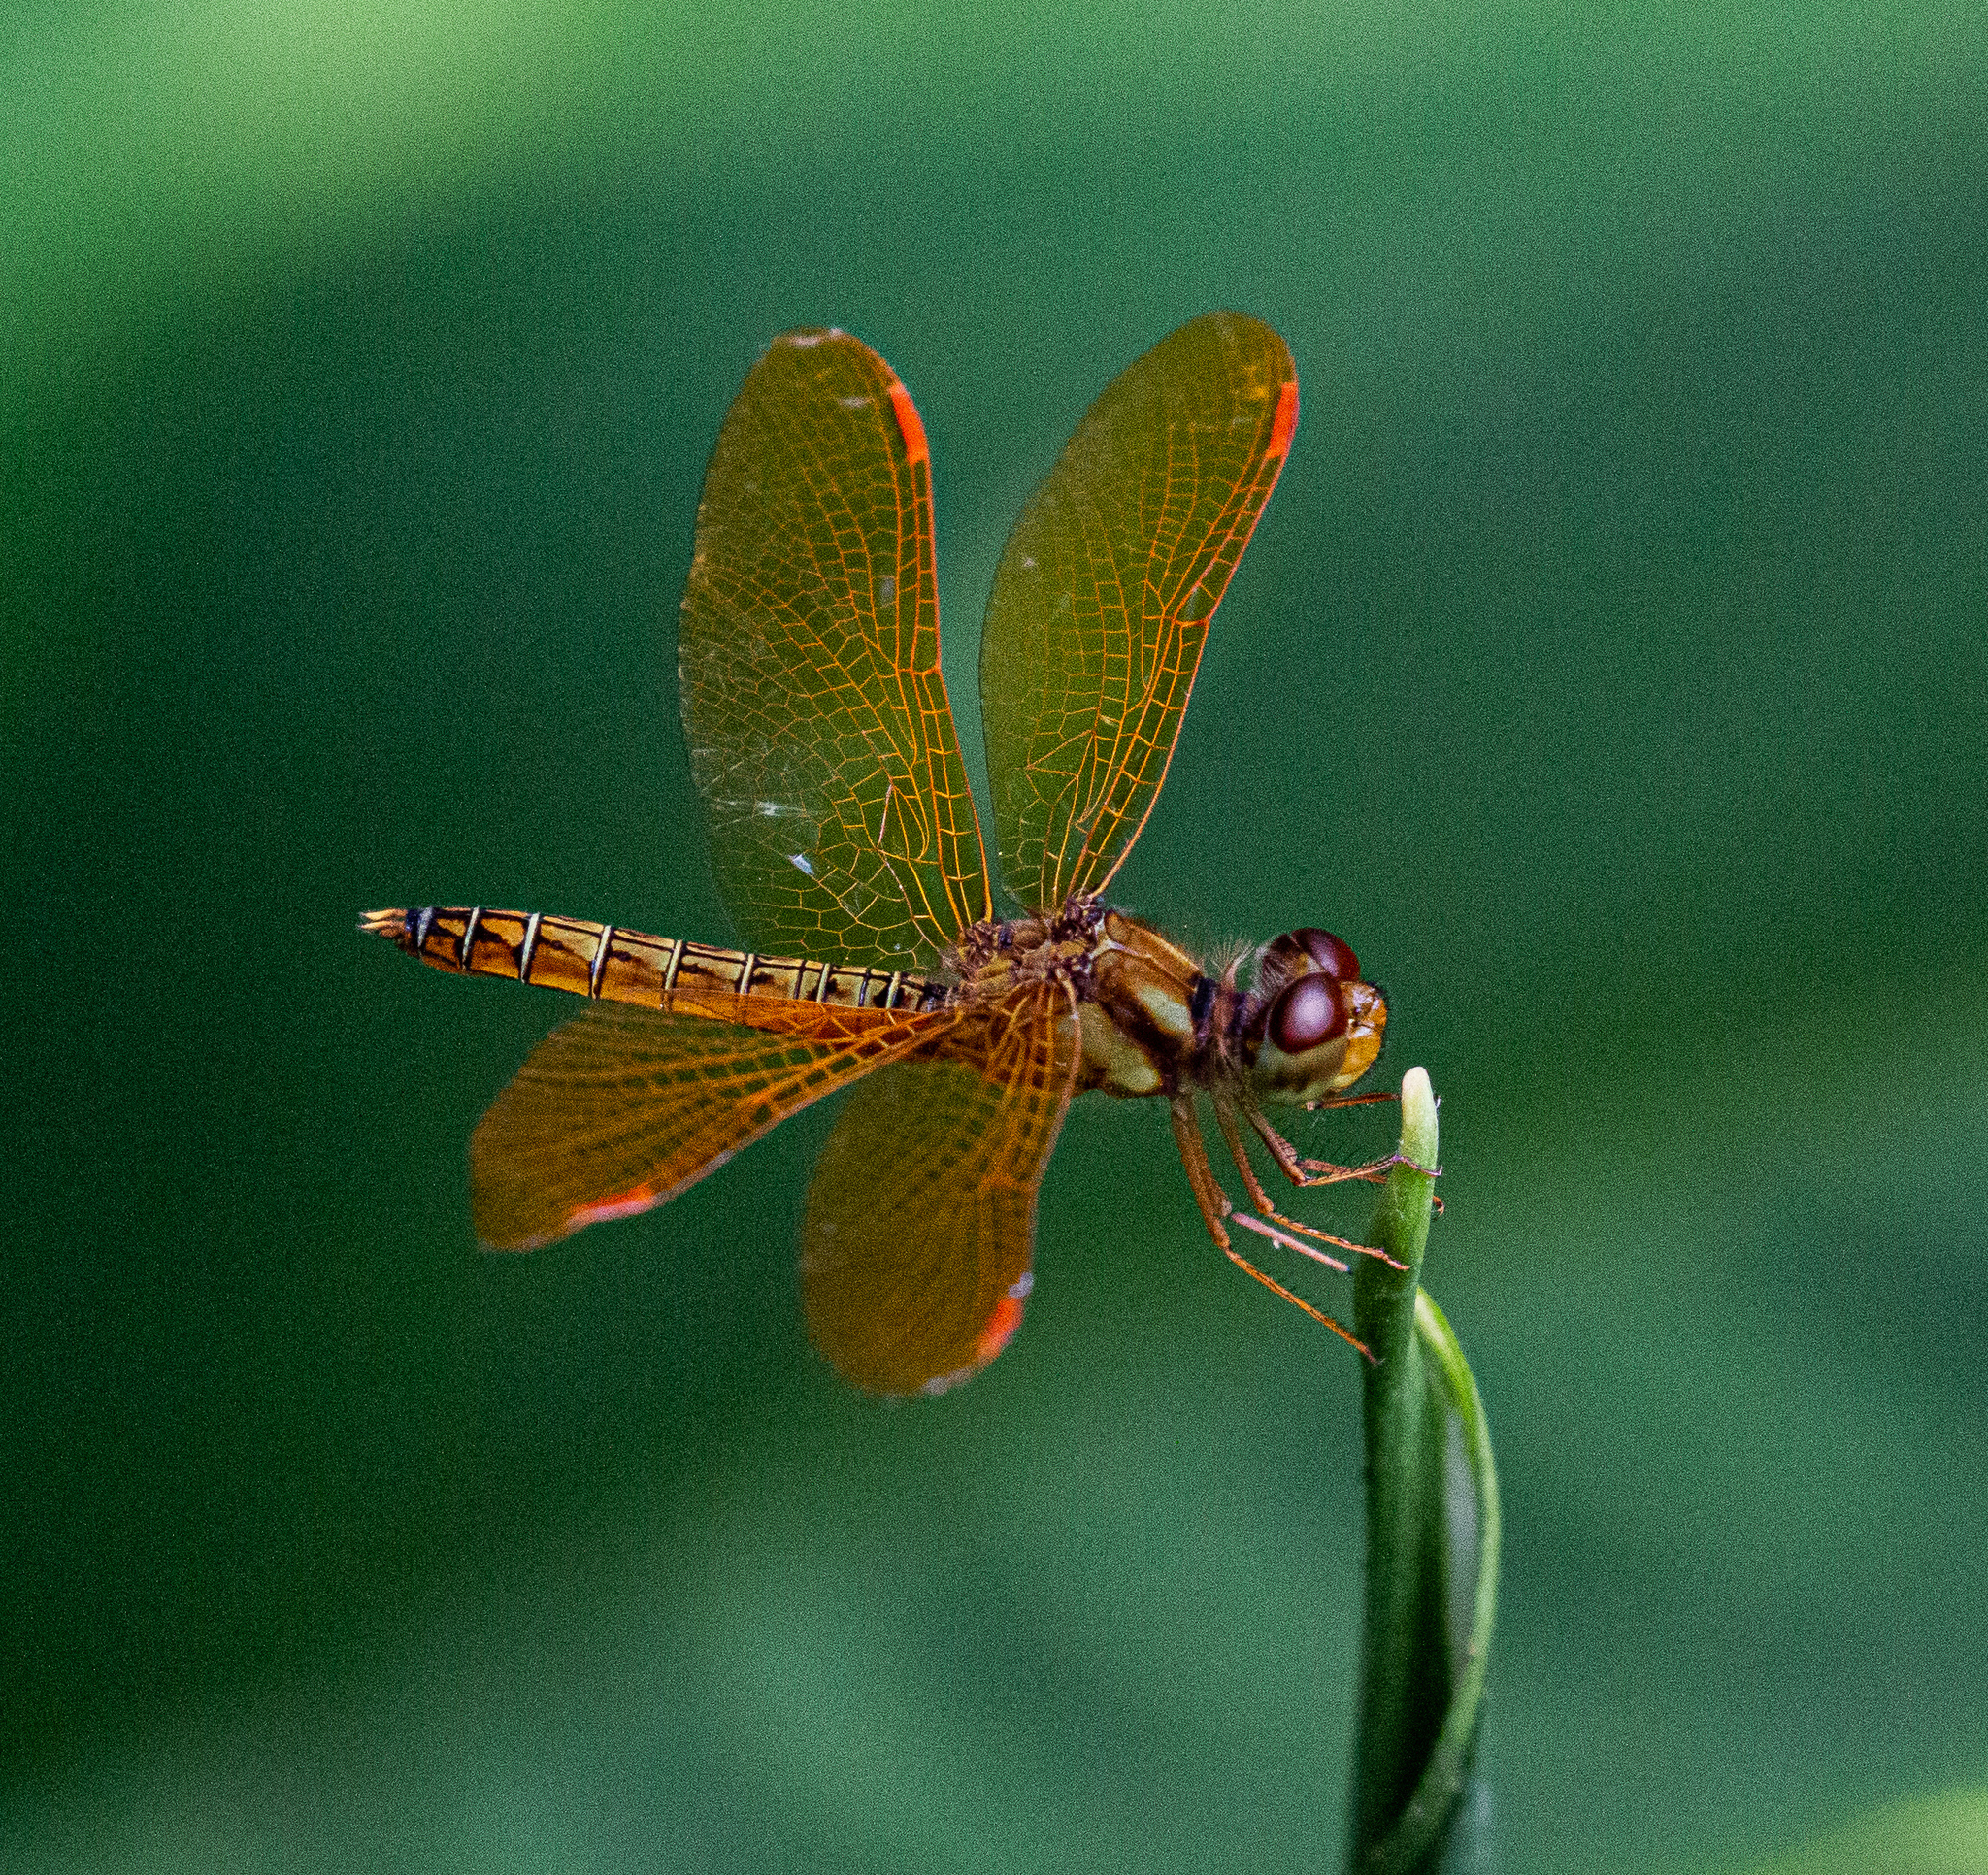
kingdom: Animalia
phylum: Arthropoda
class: Insecta
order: Odonata
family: Libellulidae
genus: Perithemis
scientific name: Perithemis tenera
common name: Eastern amberwing
